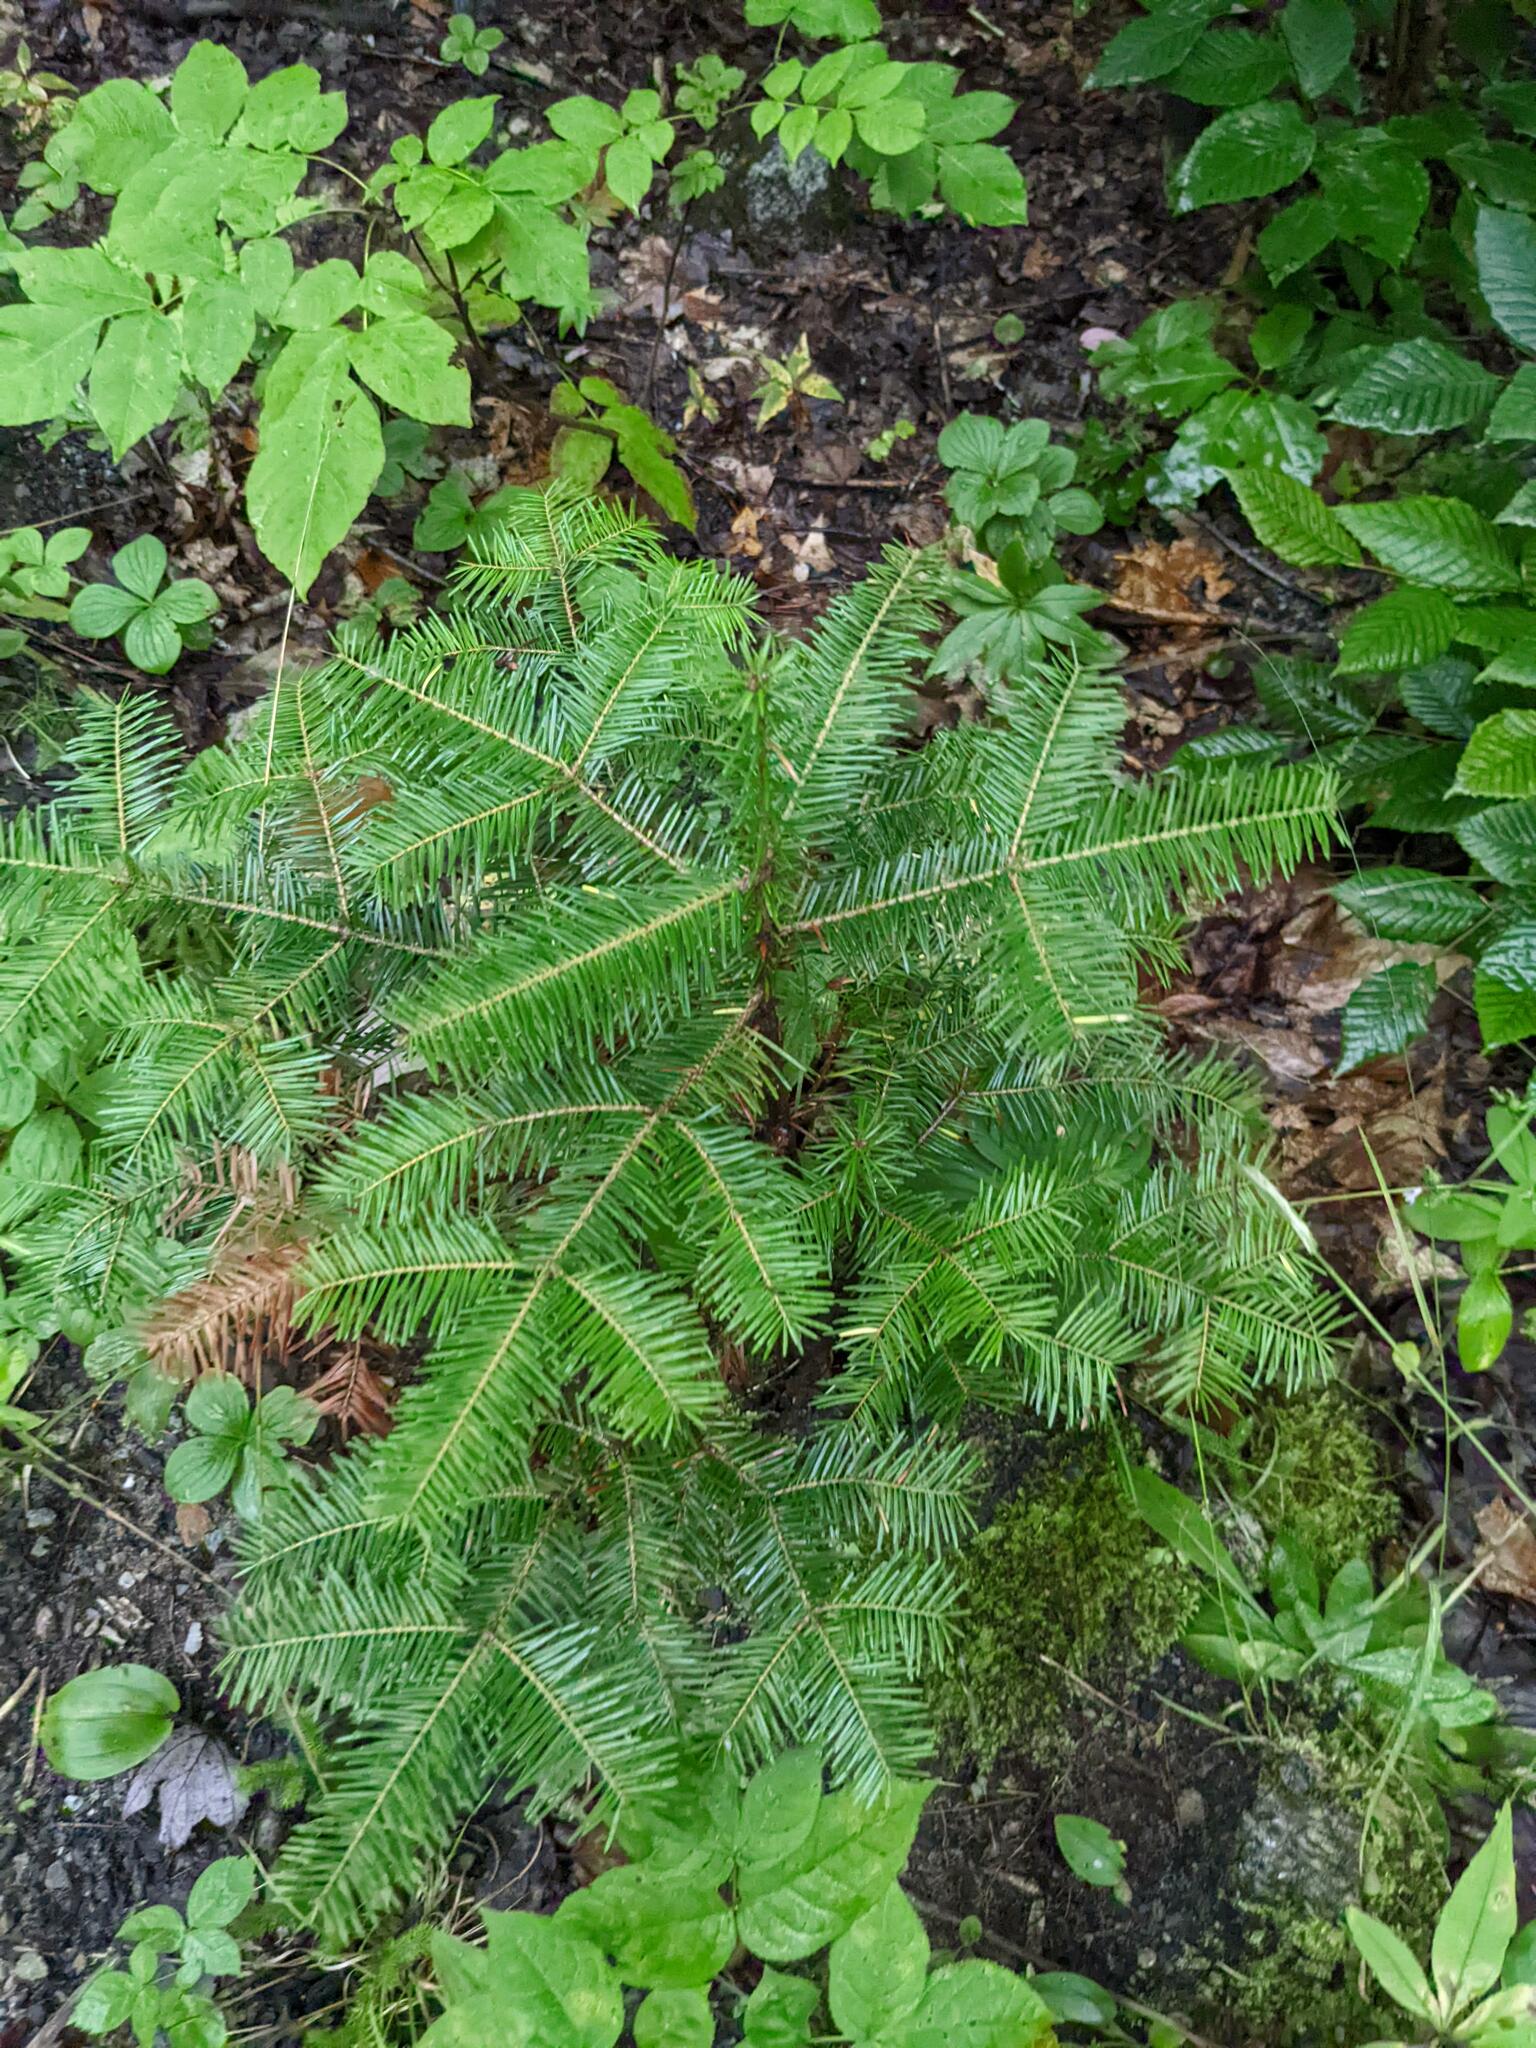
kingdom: Plantae
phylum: Tracheophyta
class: Pinopsida
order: Pinales
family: Pinaceae
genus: Abies
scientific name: Abies balsamea
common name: Balsam fir
